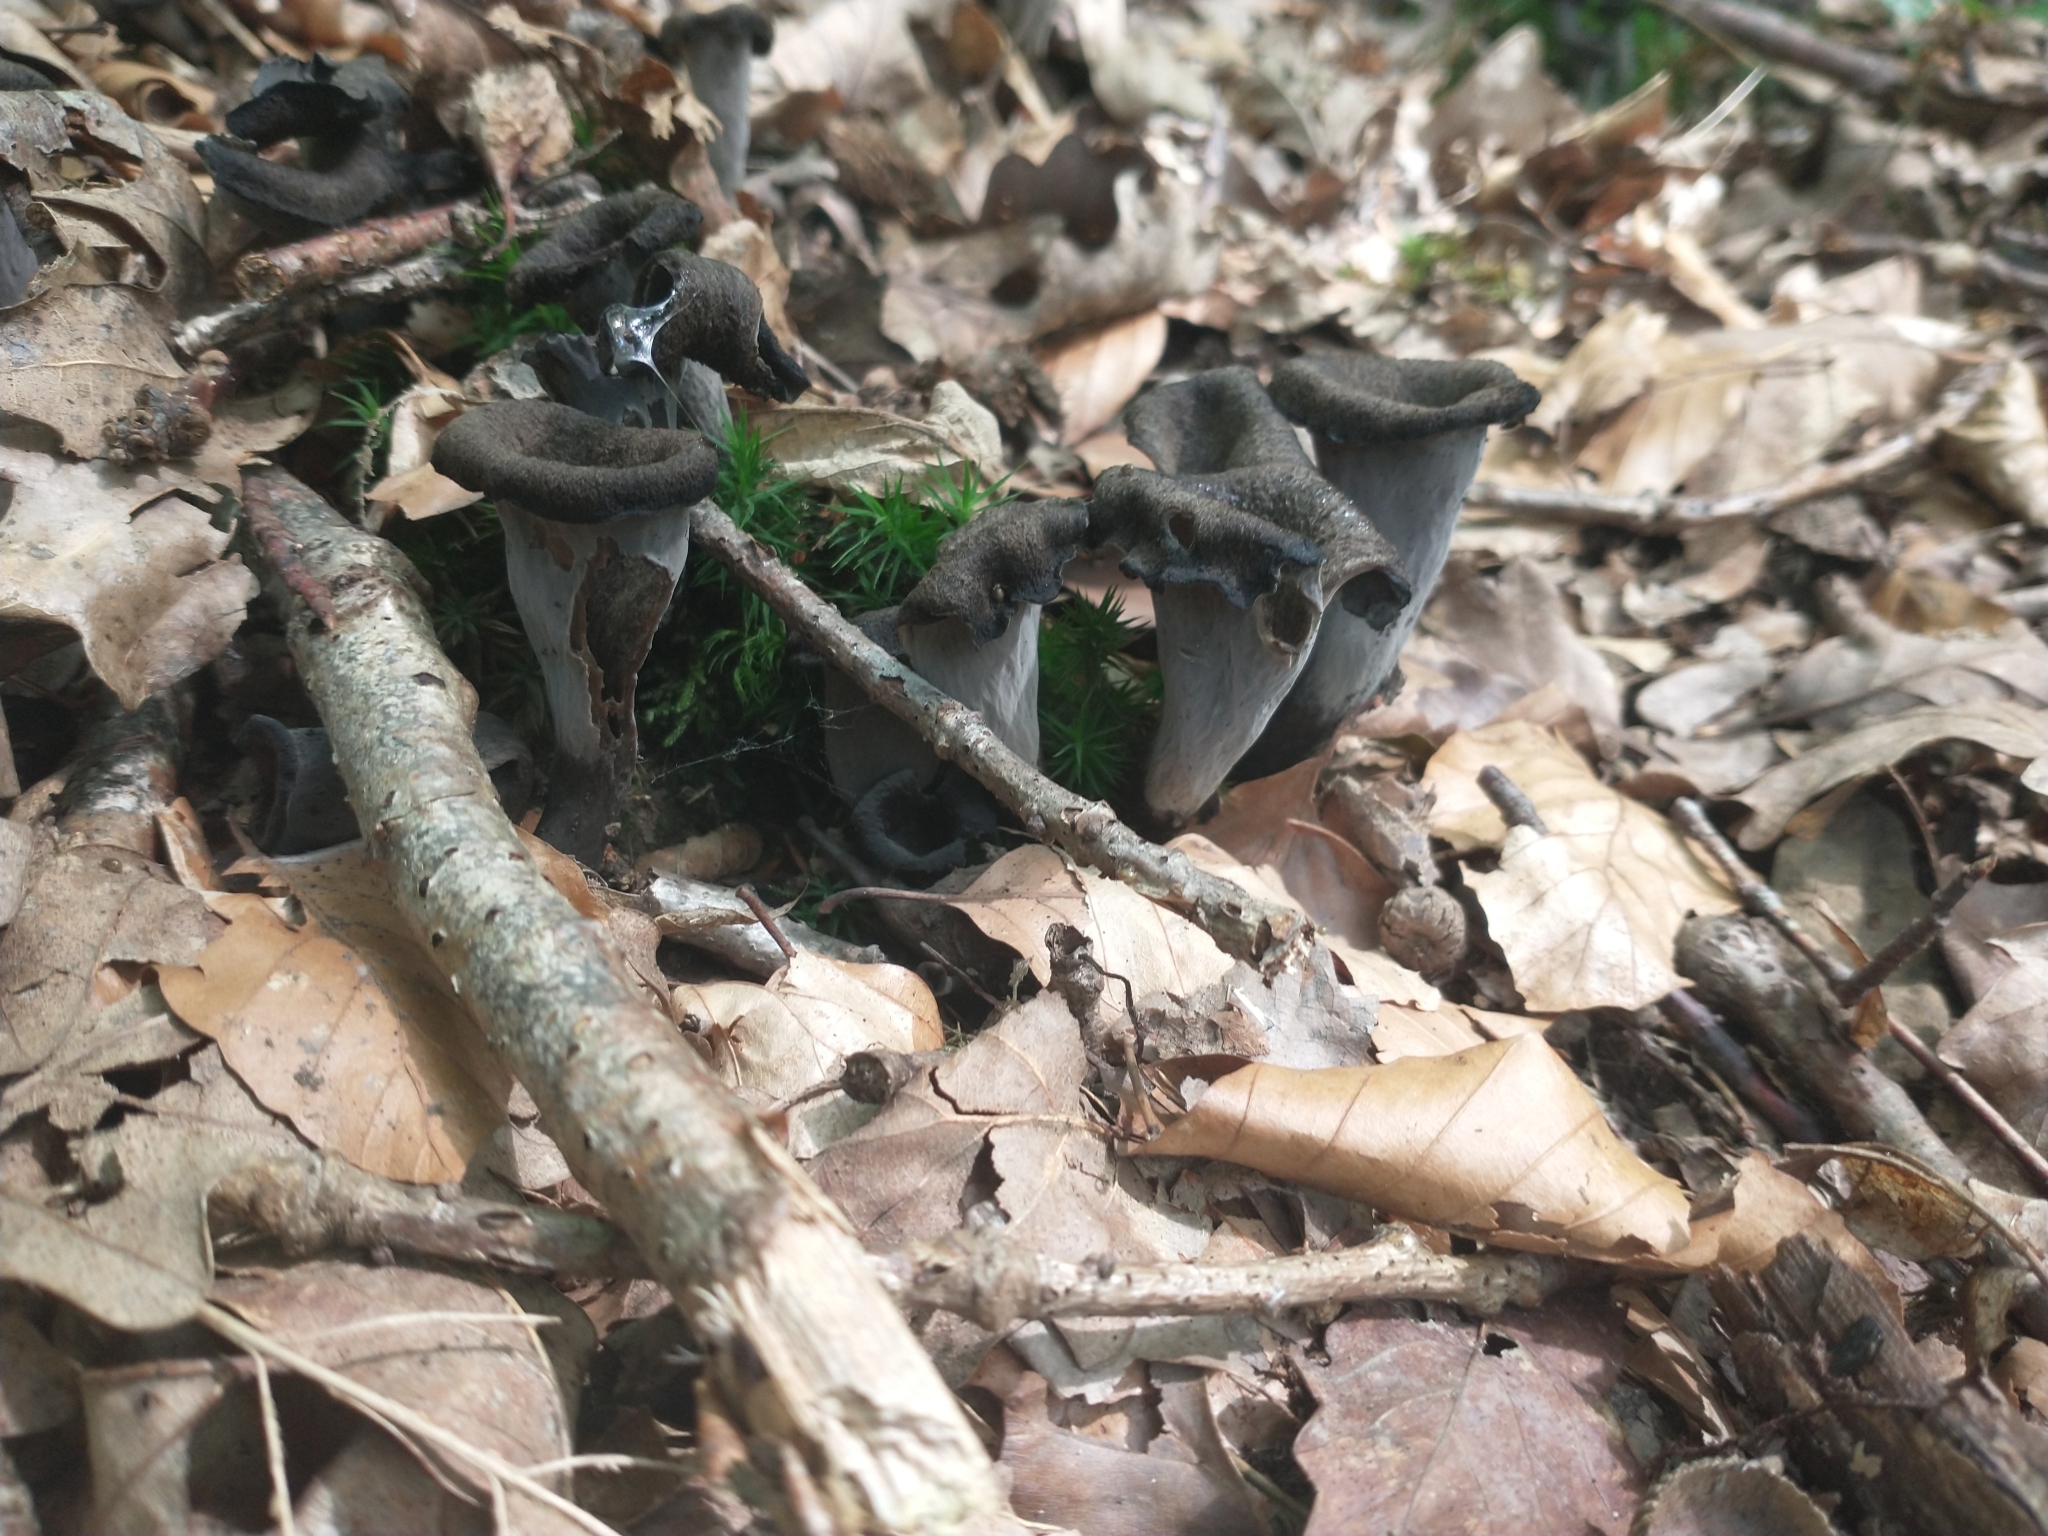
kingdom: Fungi
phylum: Basidiomycota
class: Agaricomycetes
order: Cantharellales
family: Hydnaceae
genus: Craterellus
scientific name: Craterellus cornucopioides
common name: Horn of plenty
